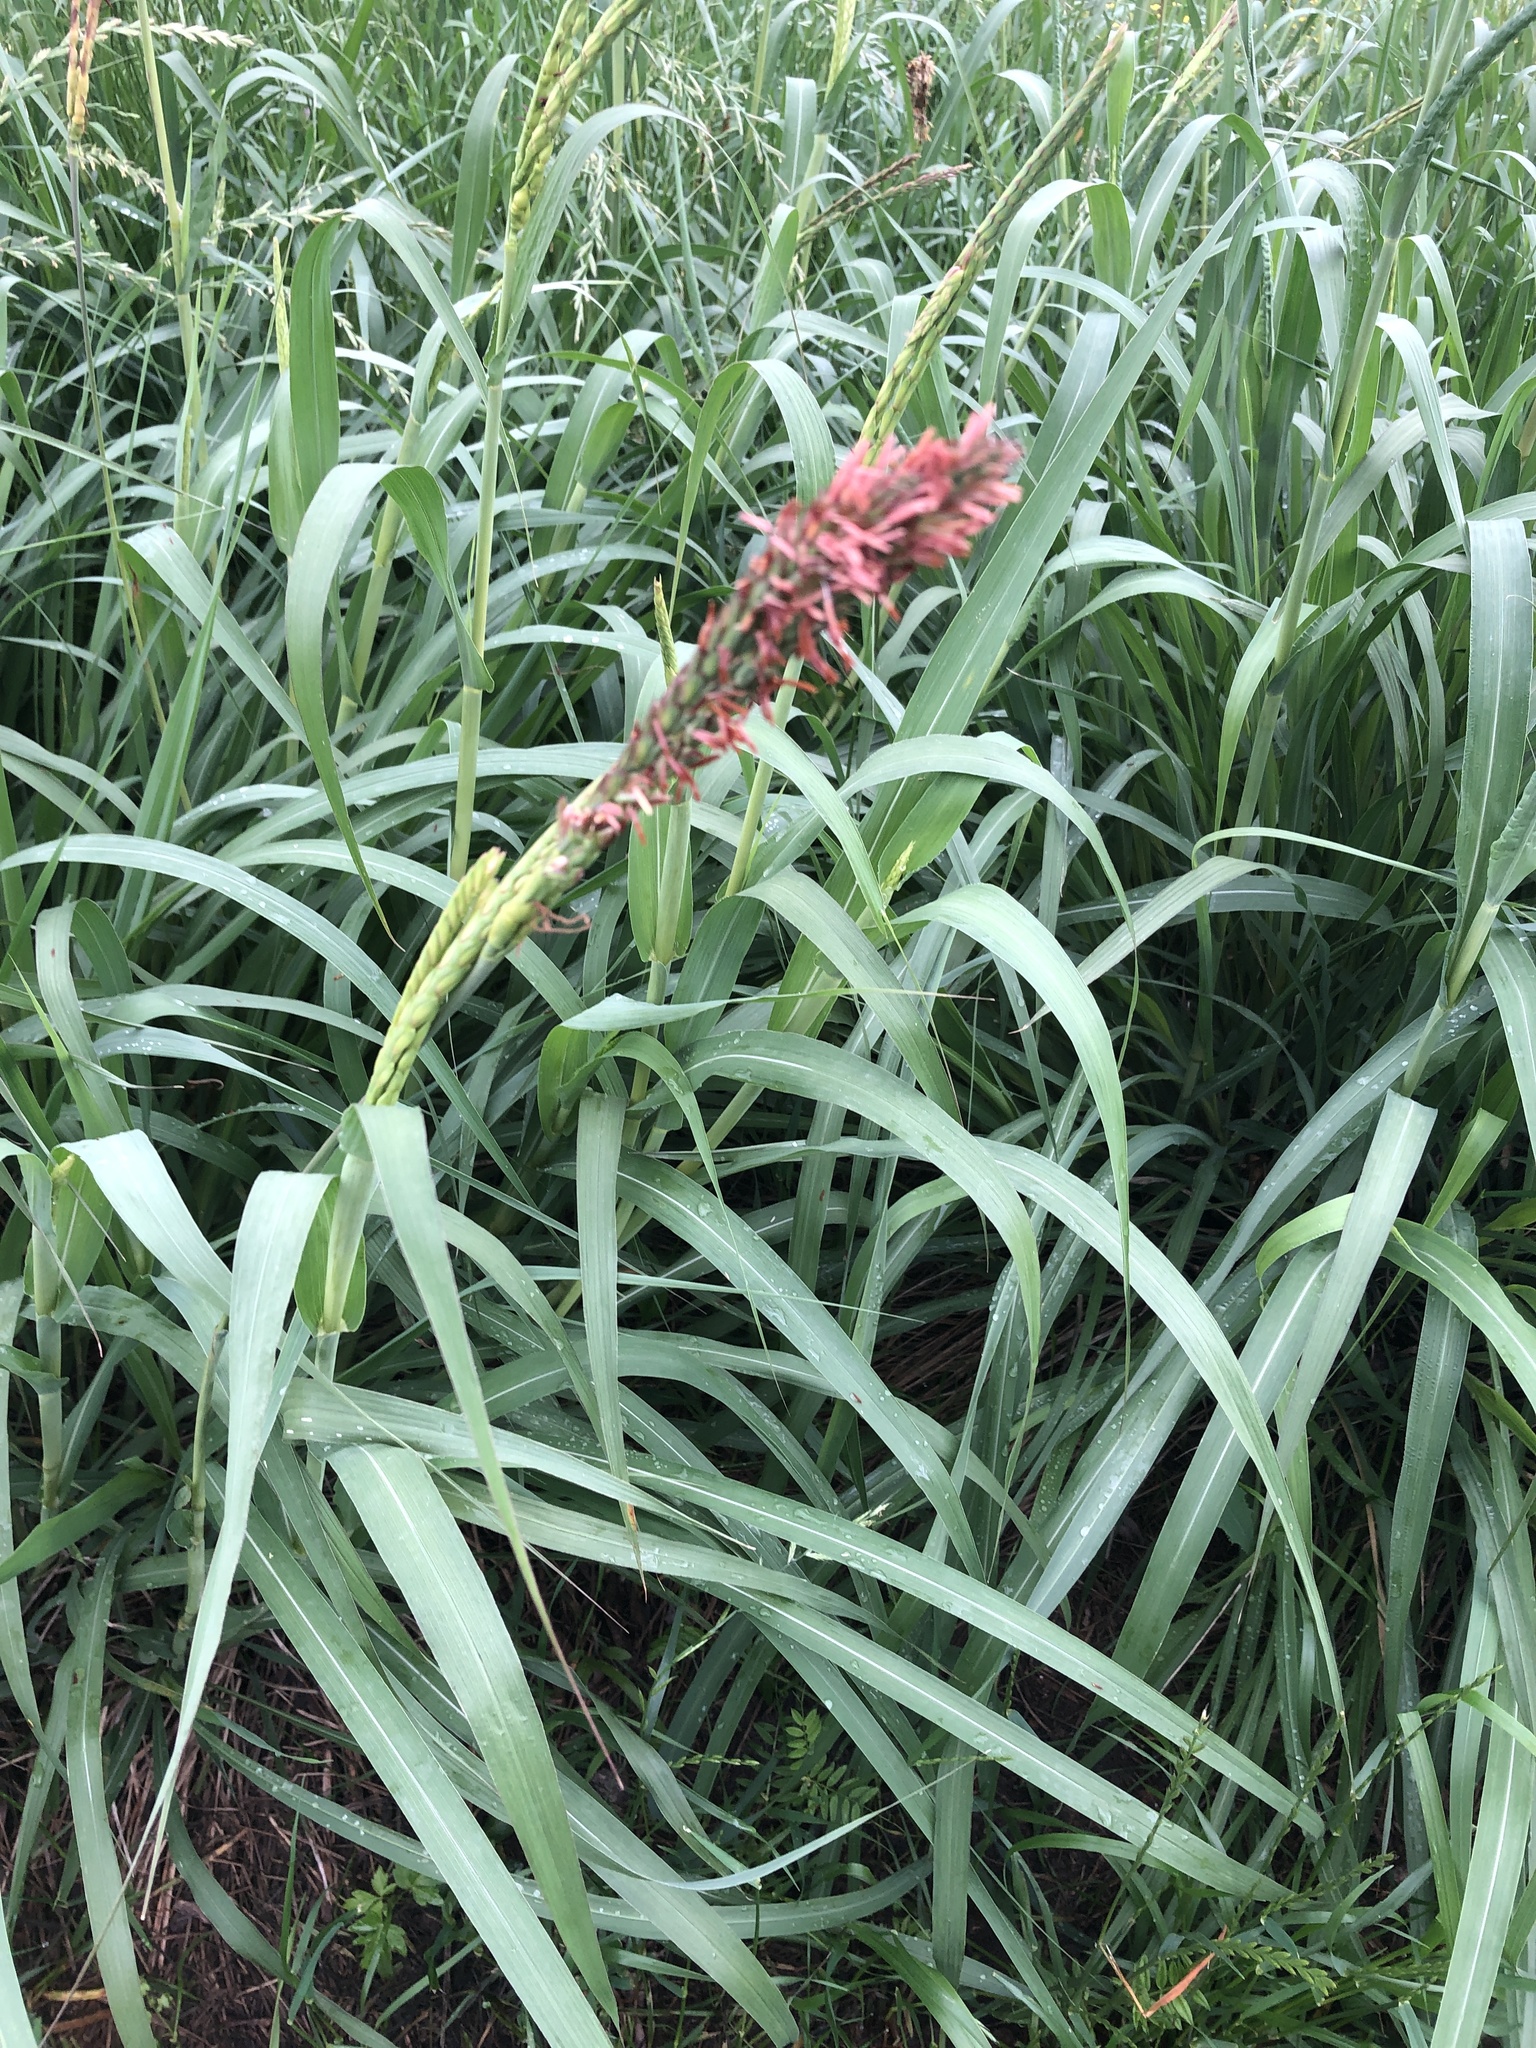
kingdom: Plantae
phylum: Tracheophyta
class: Liliopsida
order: Poales
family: Poaceae
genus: Tripsacum
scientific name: Tripsacum dactyloides
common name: Buffalo-grass
